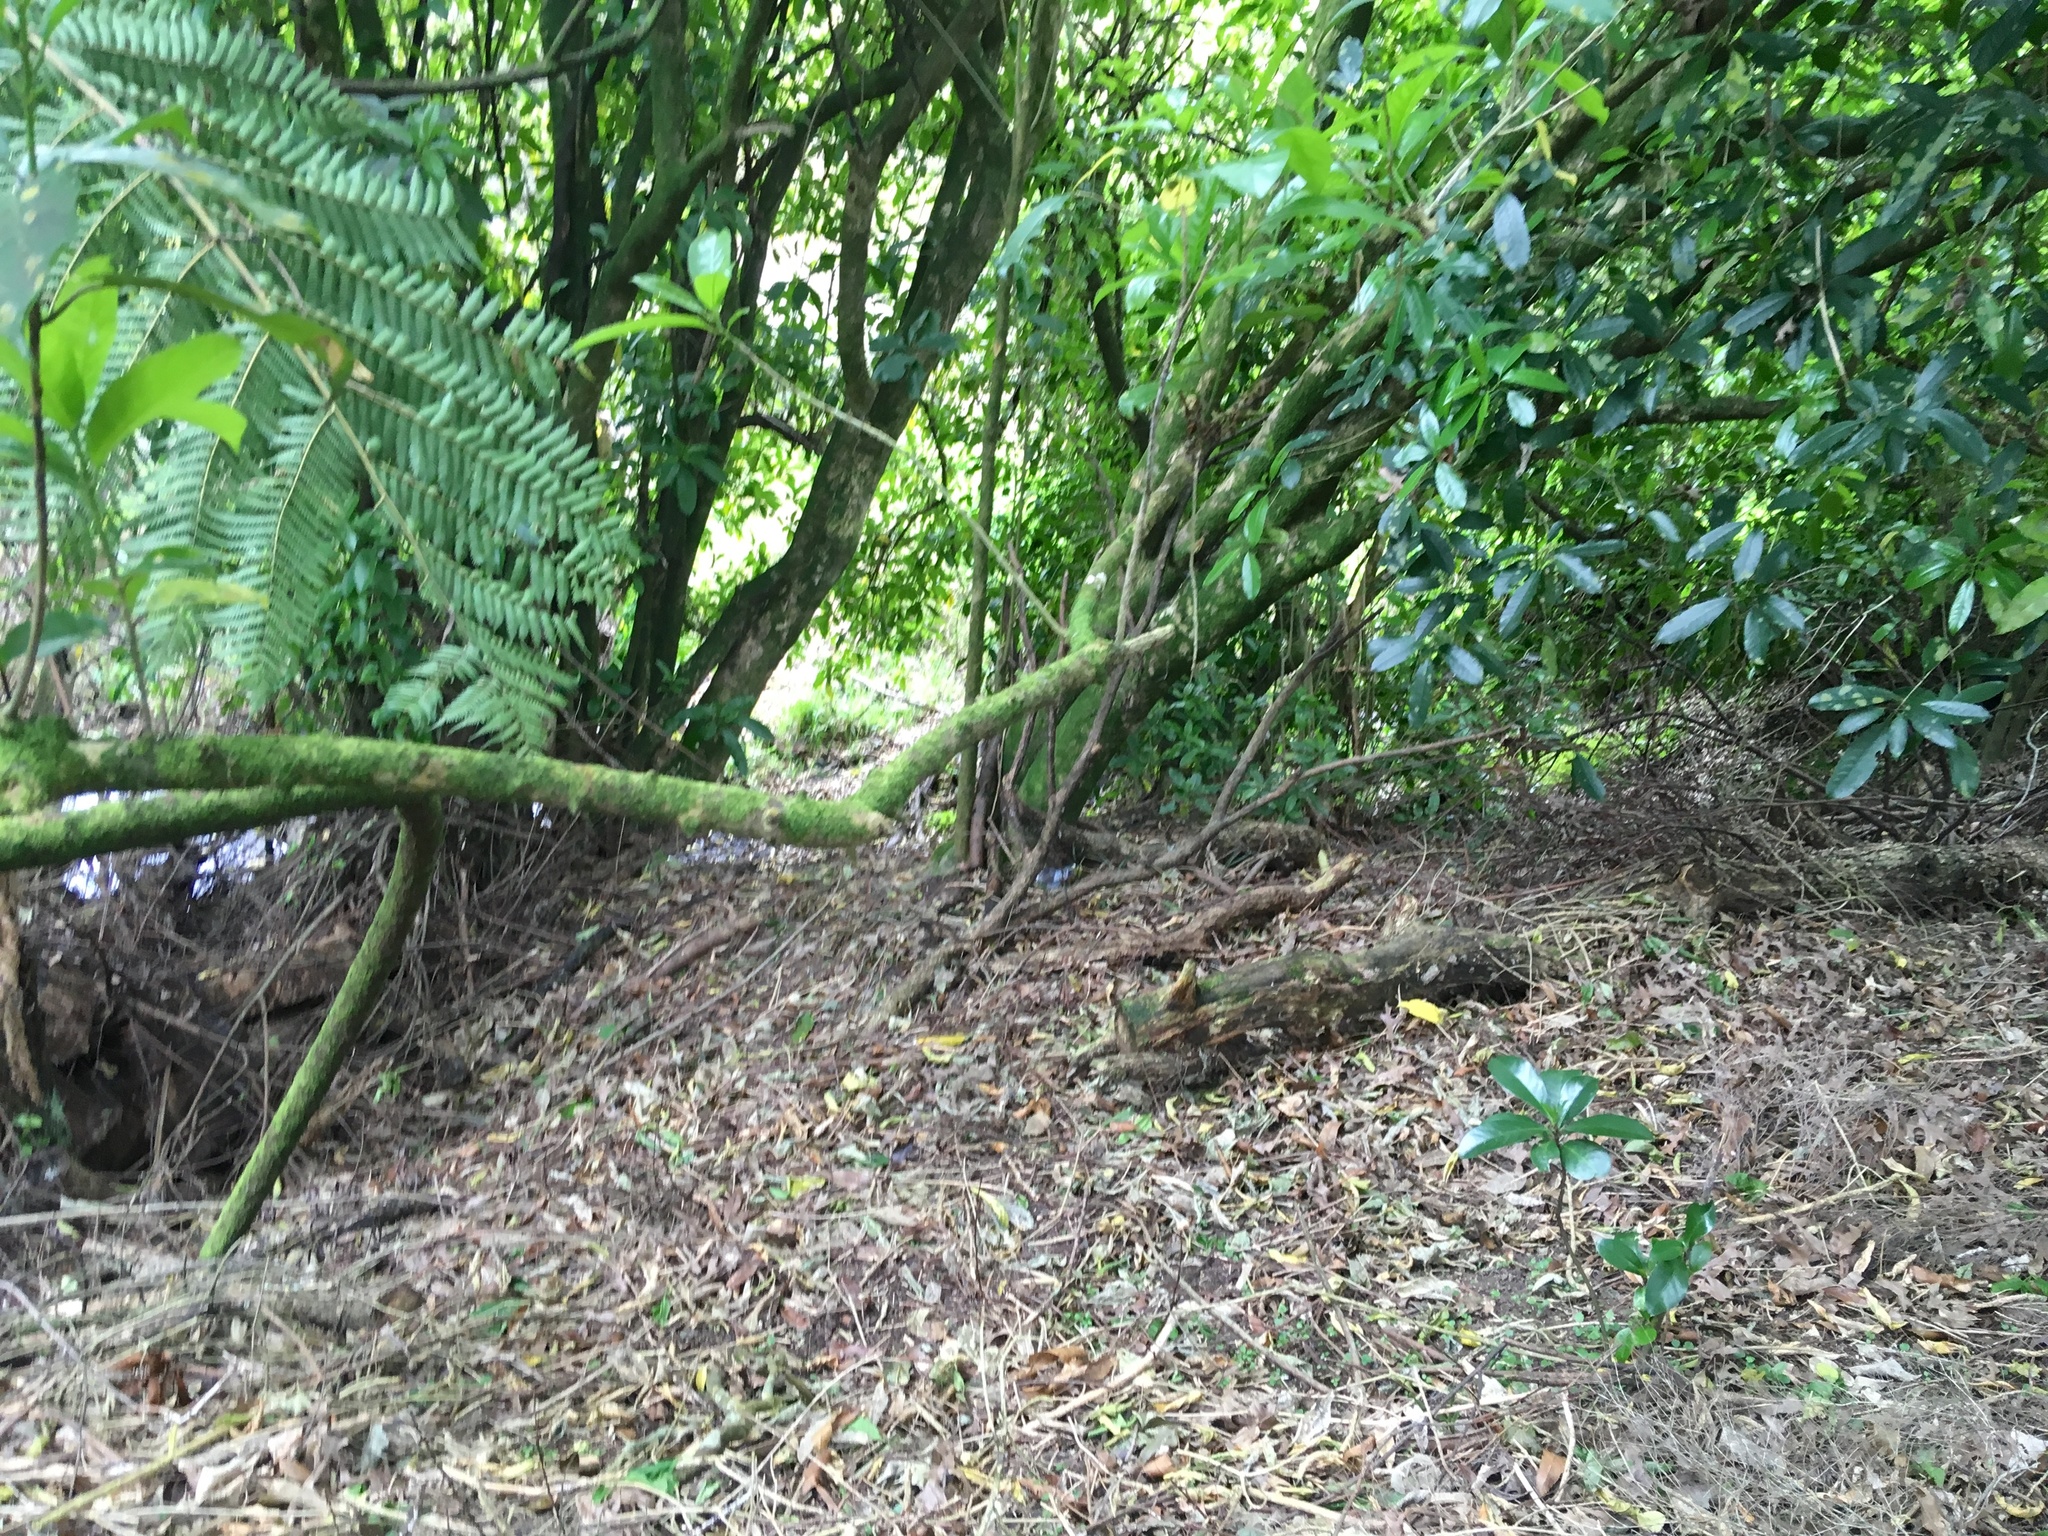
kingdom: Plantae
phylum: Tracheophyta
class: Magnoliopsida
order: Cucurbitales
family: Corynocarpaceae
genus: Corynocarpus
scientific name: Corynocarpus laevigatus
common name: New zealand laurel
